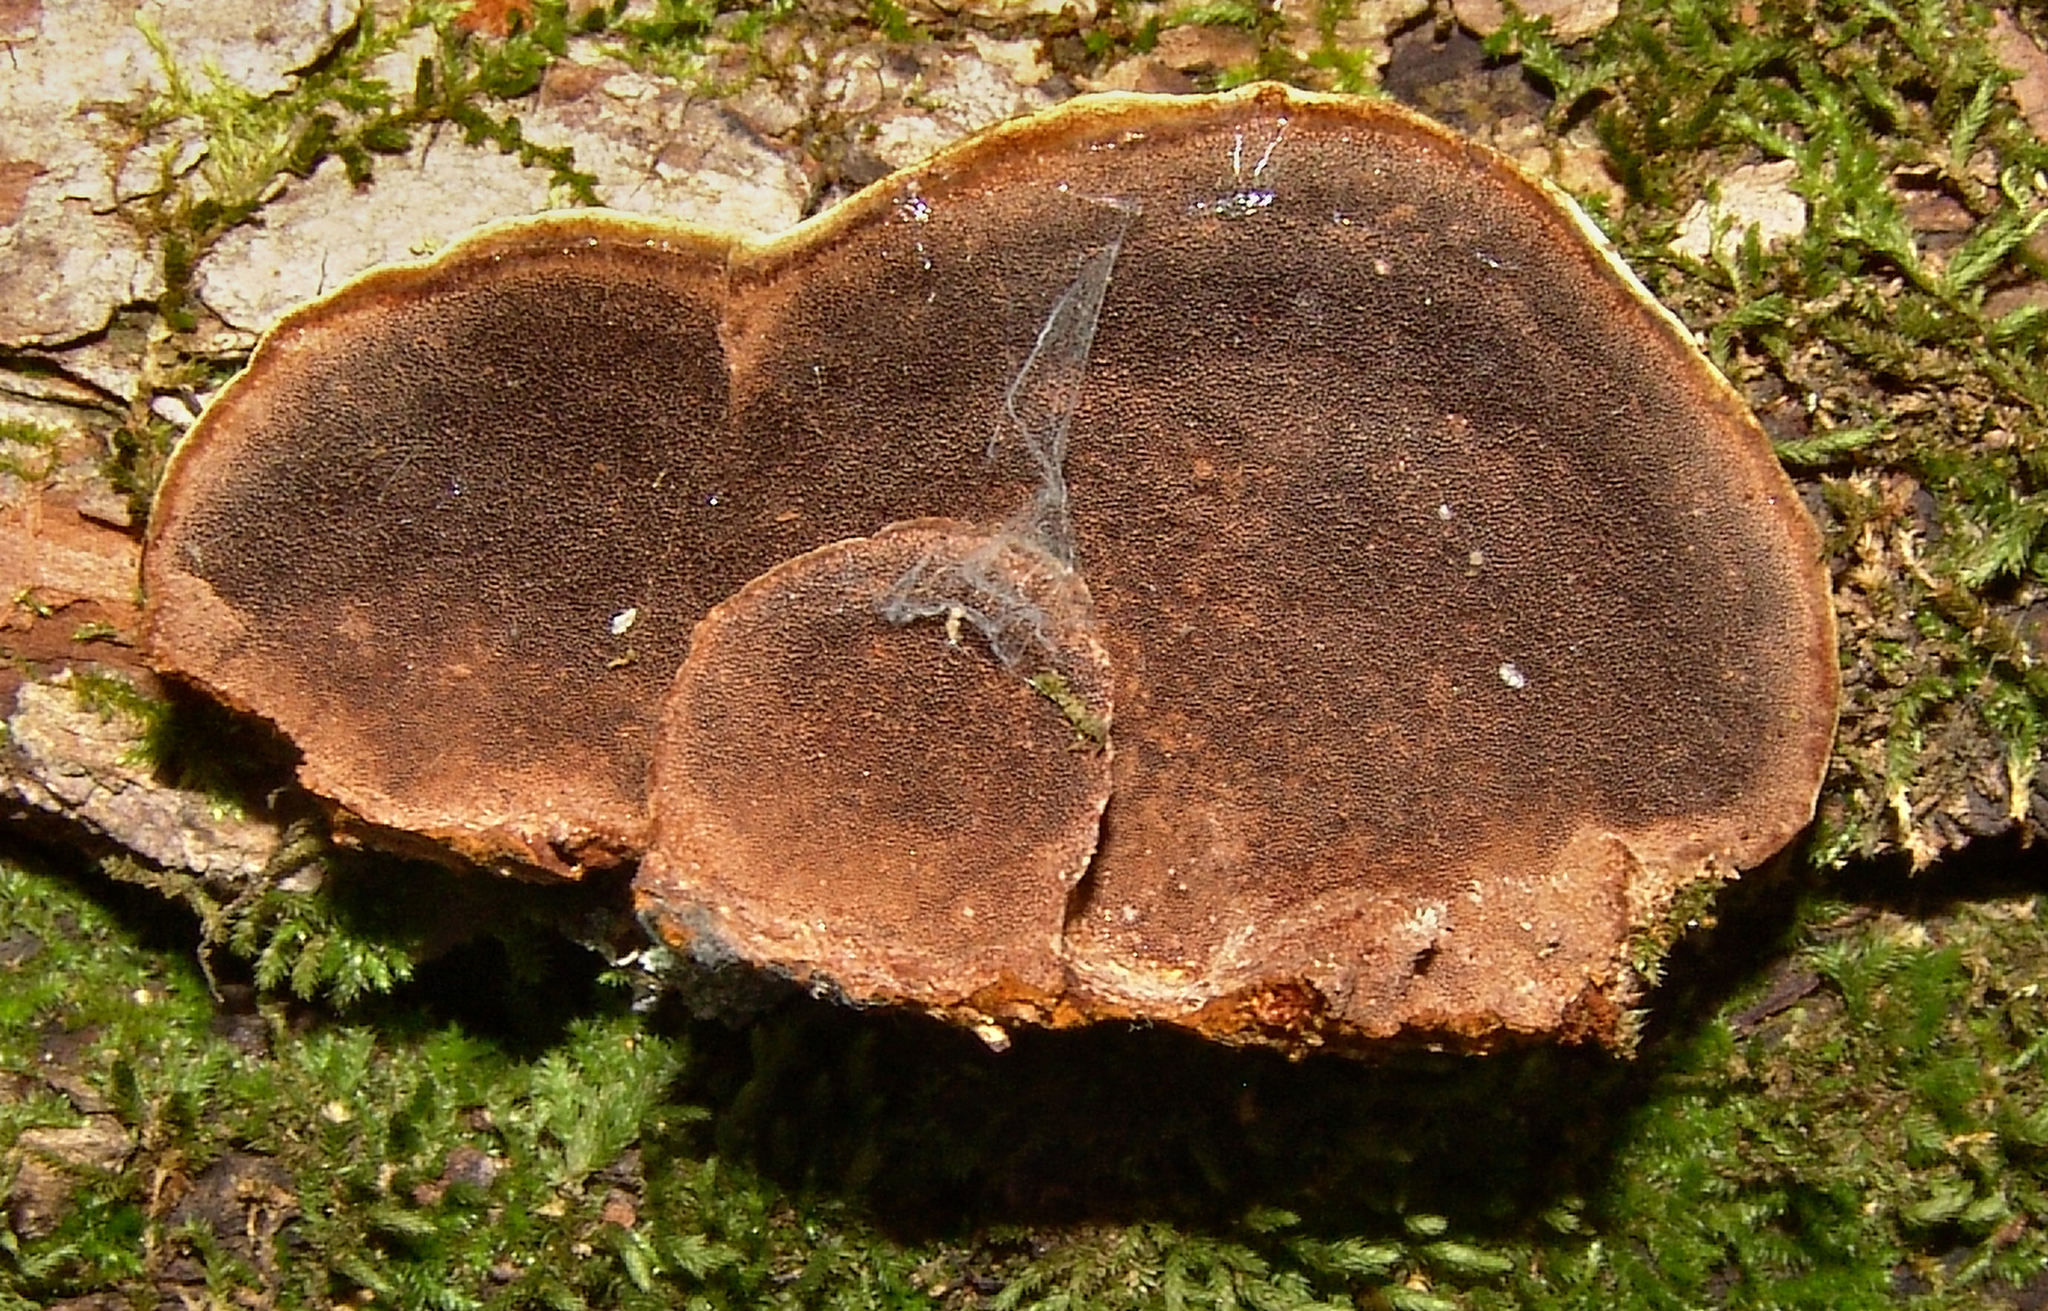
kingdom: Fungi
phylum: Basidiomycota
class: Agaricomycetes
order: Hymenochaetales
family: Hymenochaetaceae
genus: Phellinus
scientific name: Phellinus gilvus
